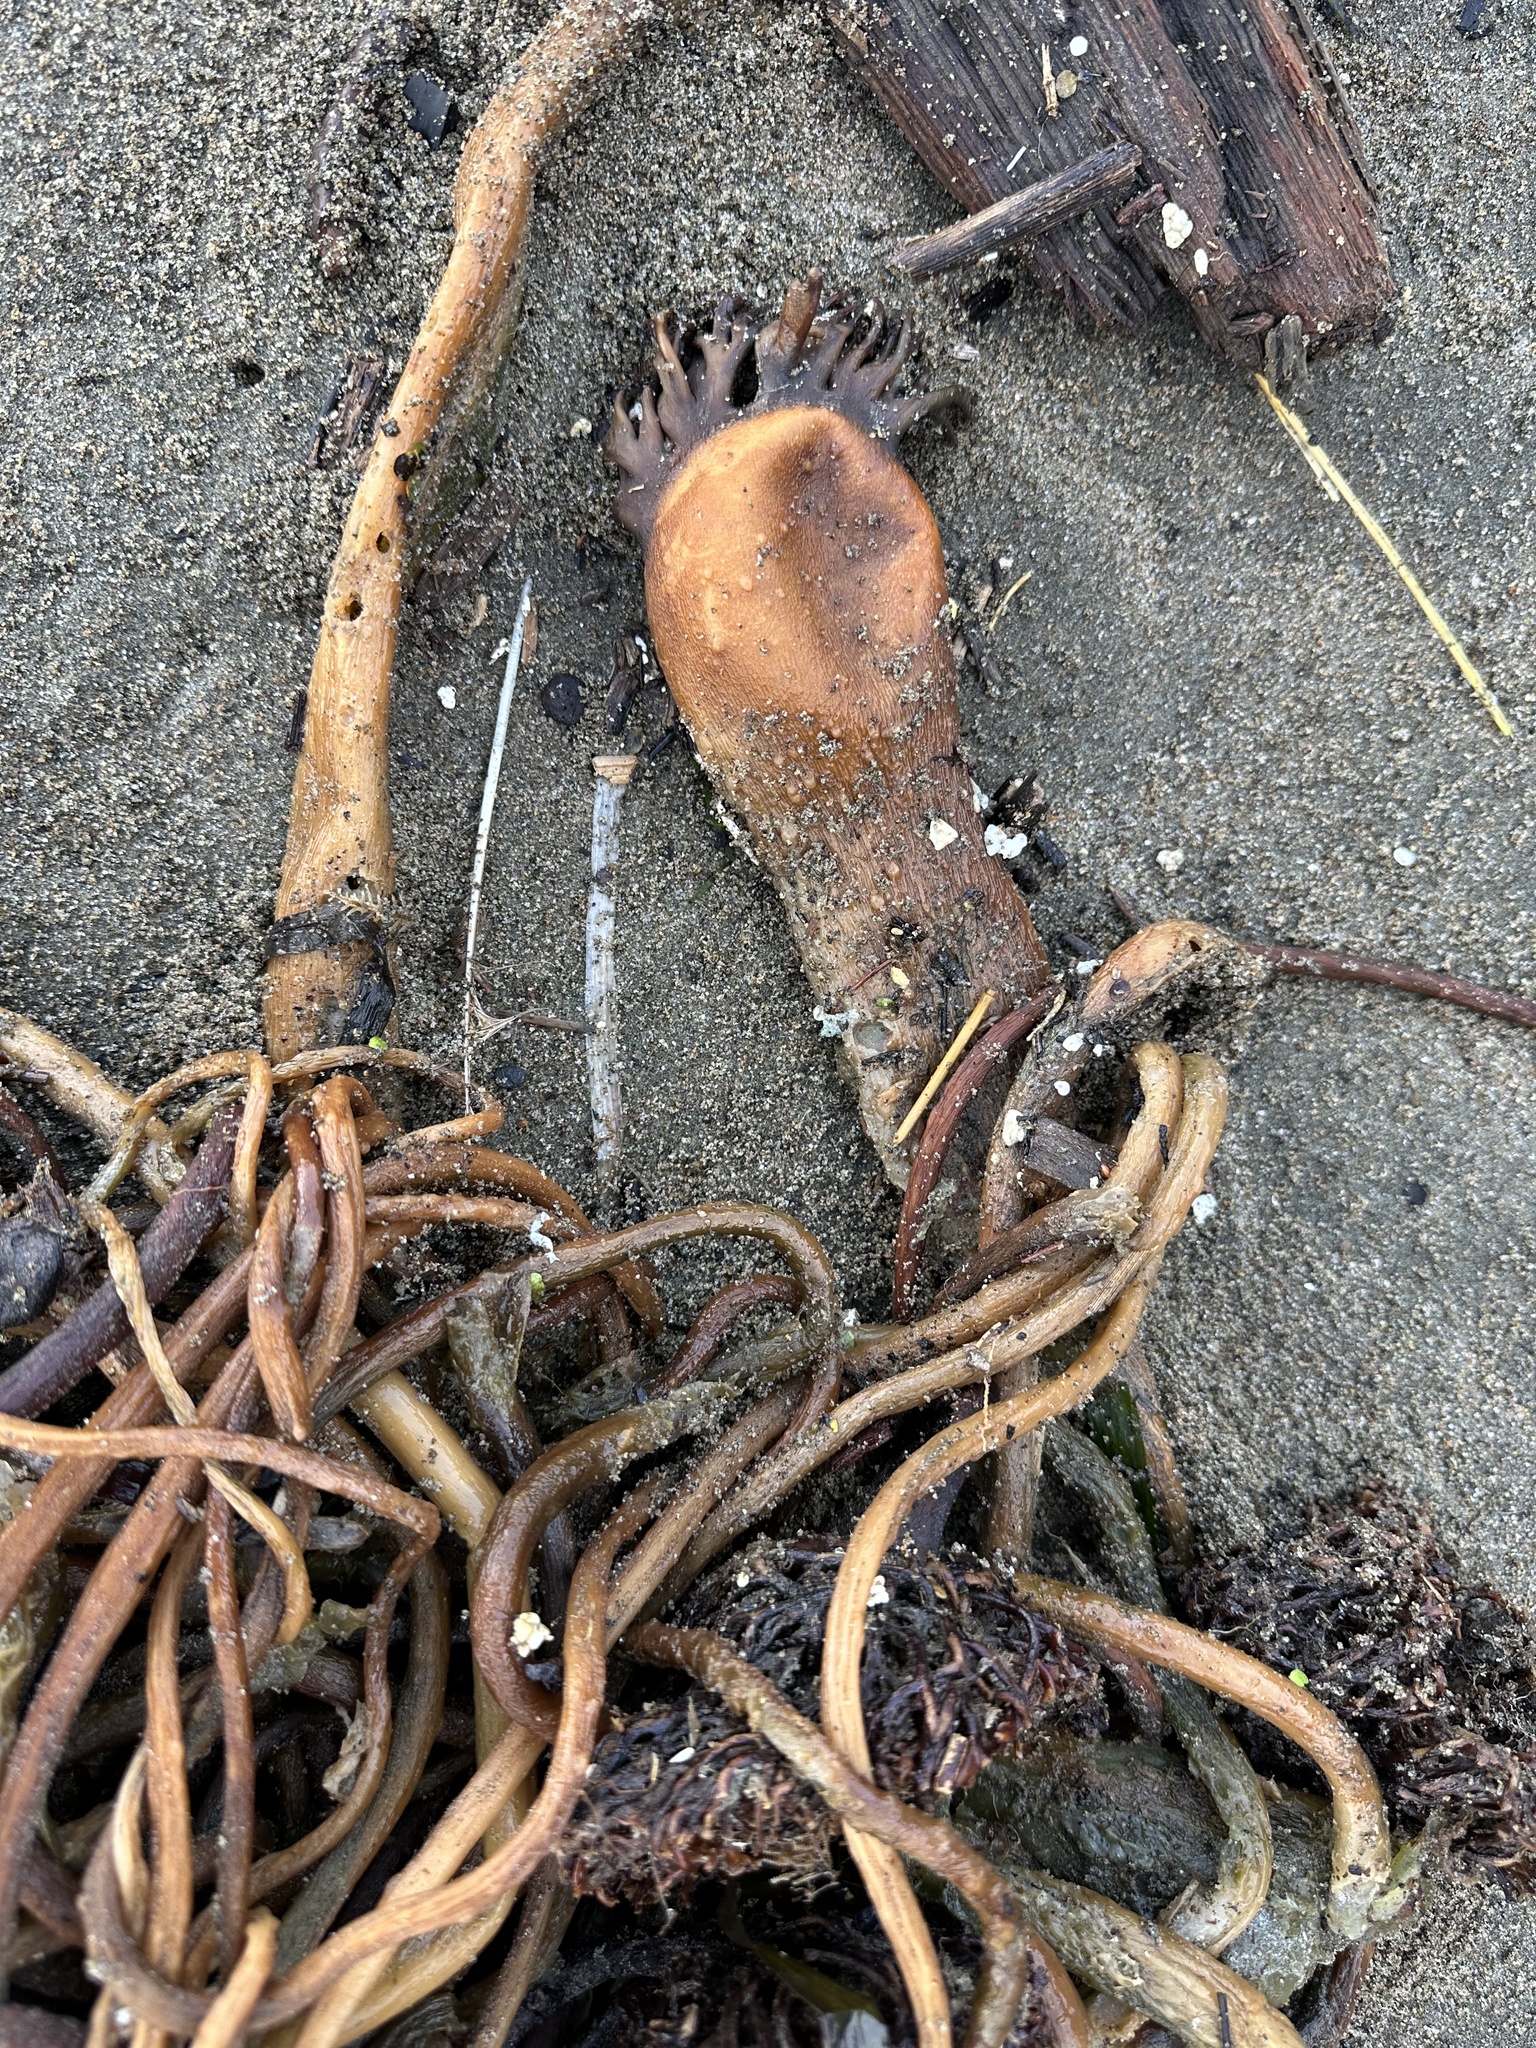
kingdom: Chromista
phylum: Ochrophyta
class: Phaeophyceae
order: Laminariales
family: Laminariaceae
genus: Nereocystis
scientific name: Nereocystis luetkeana
